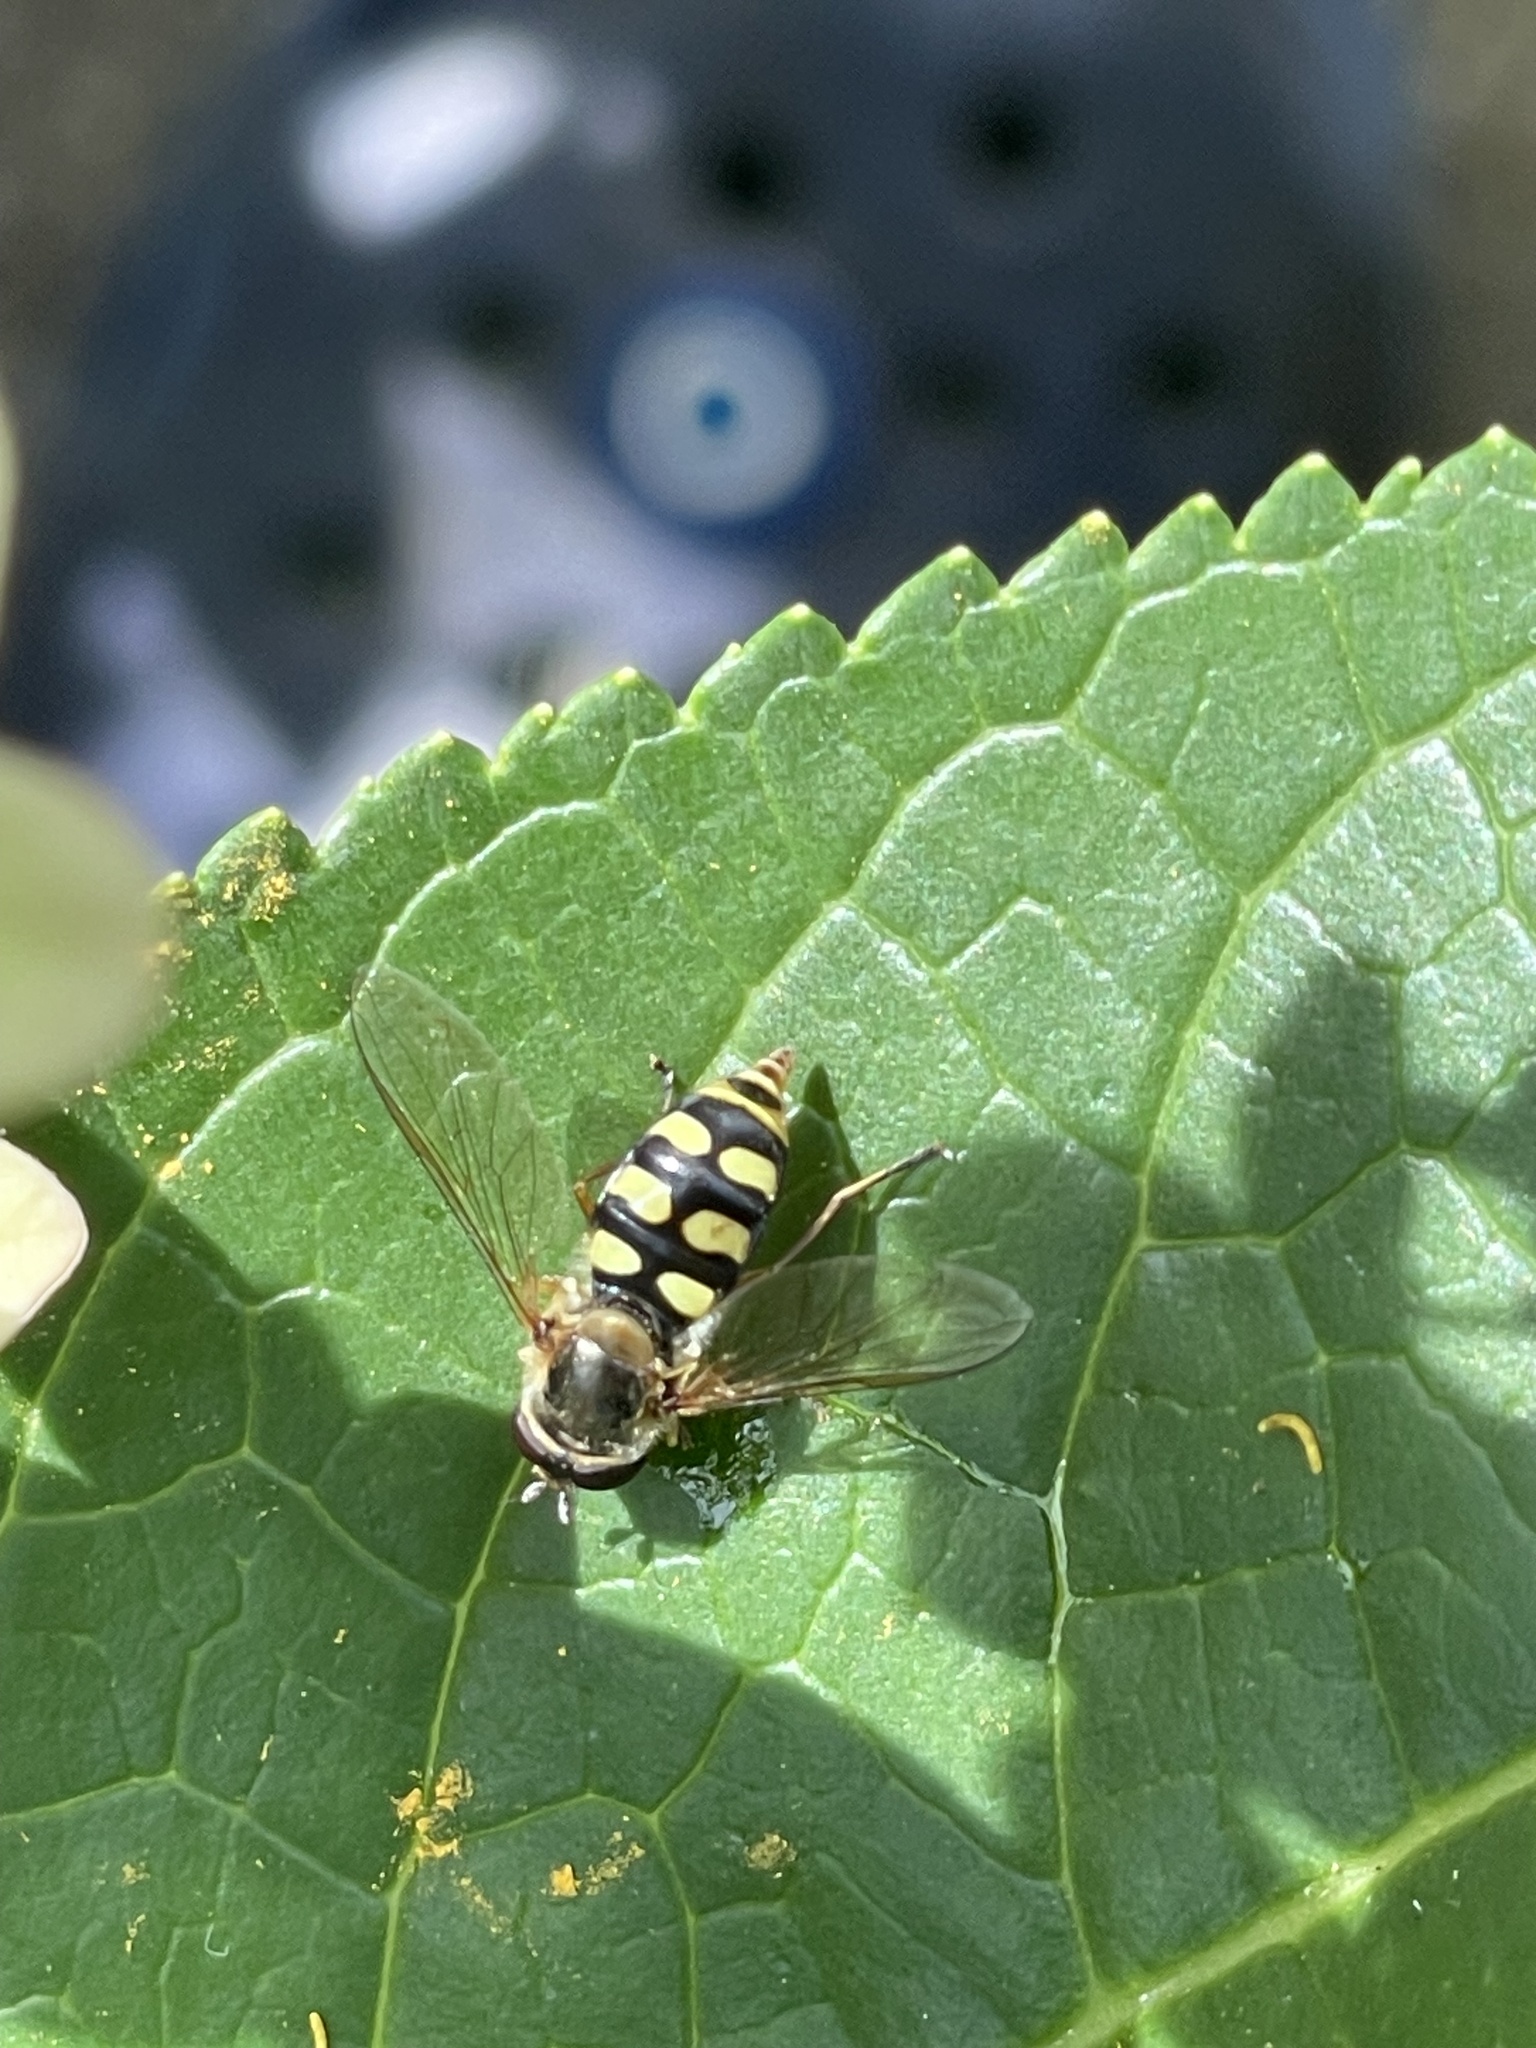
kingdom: Animalia
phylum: Arthropoda
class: Insecta
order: Diptera
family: Syrphidae
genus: Eupeodes
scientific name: Eupeodes
